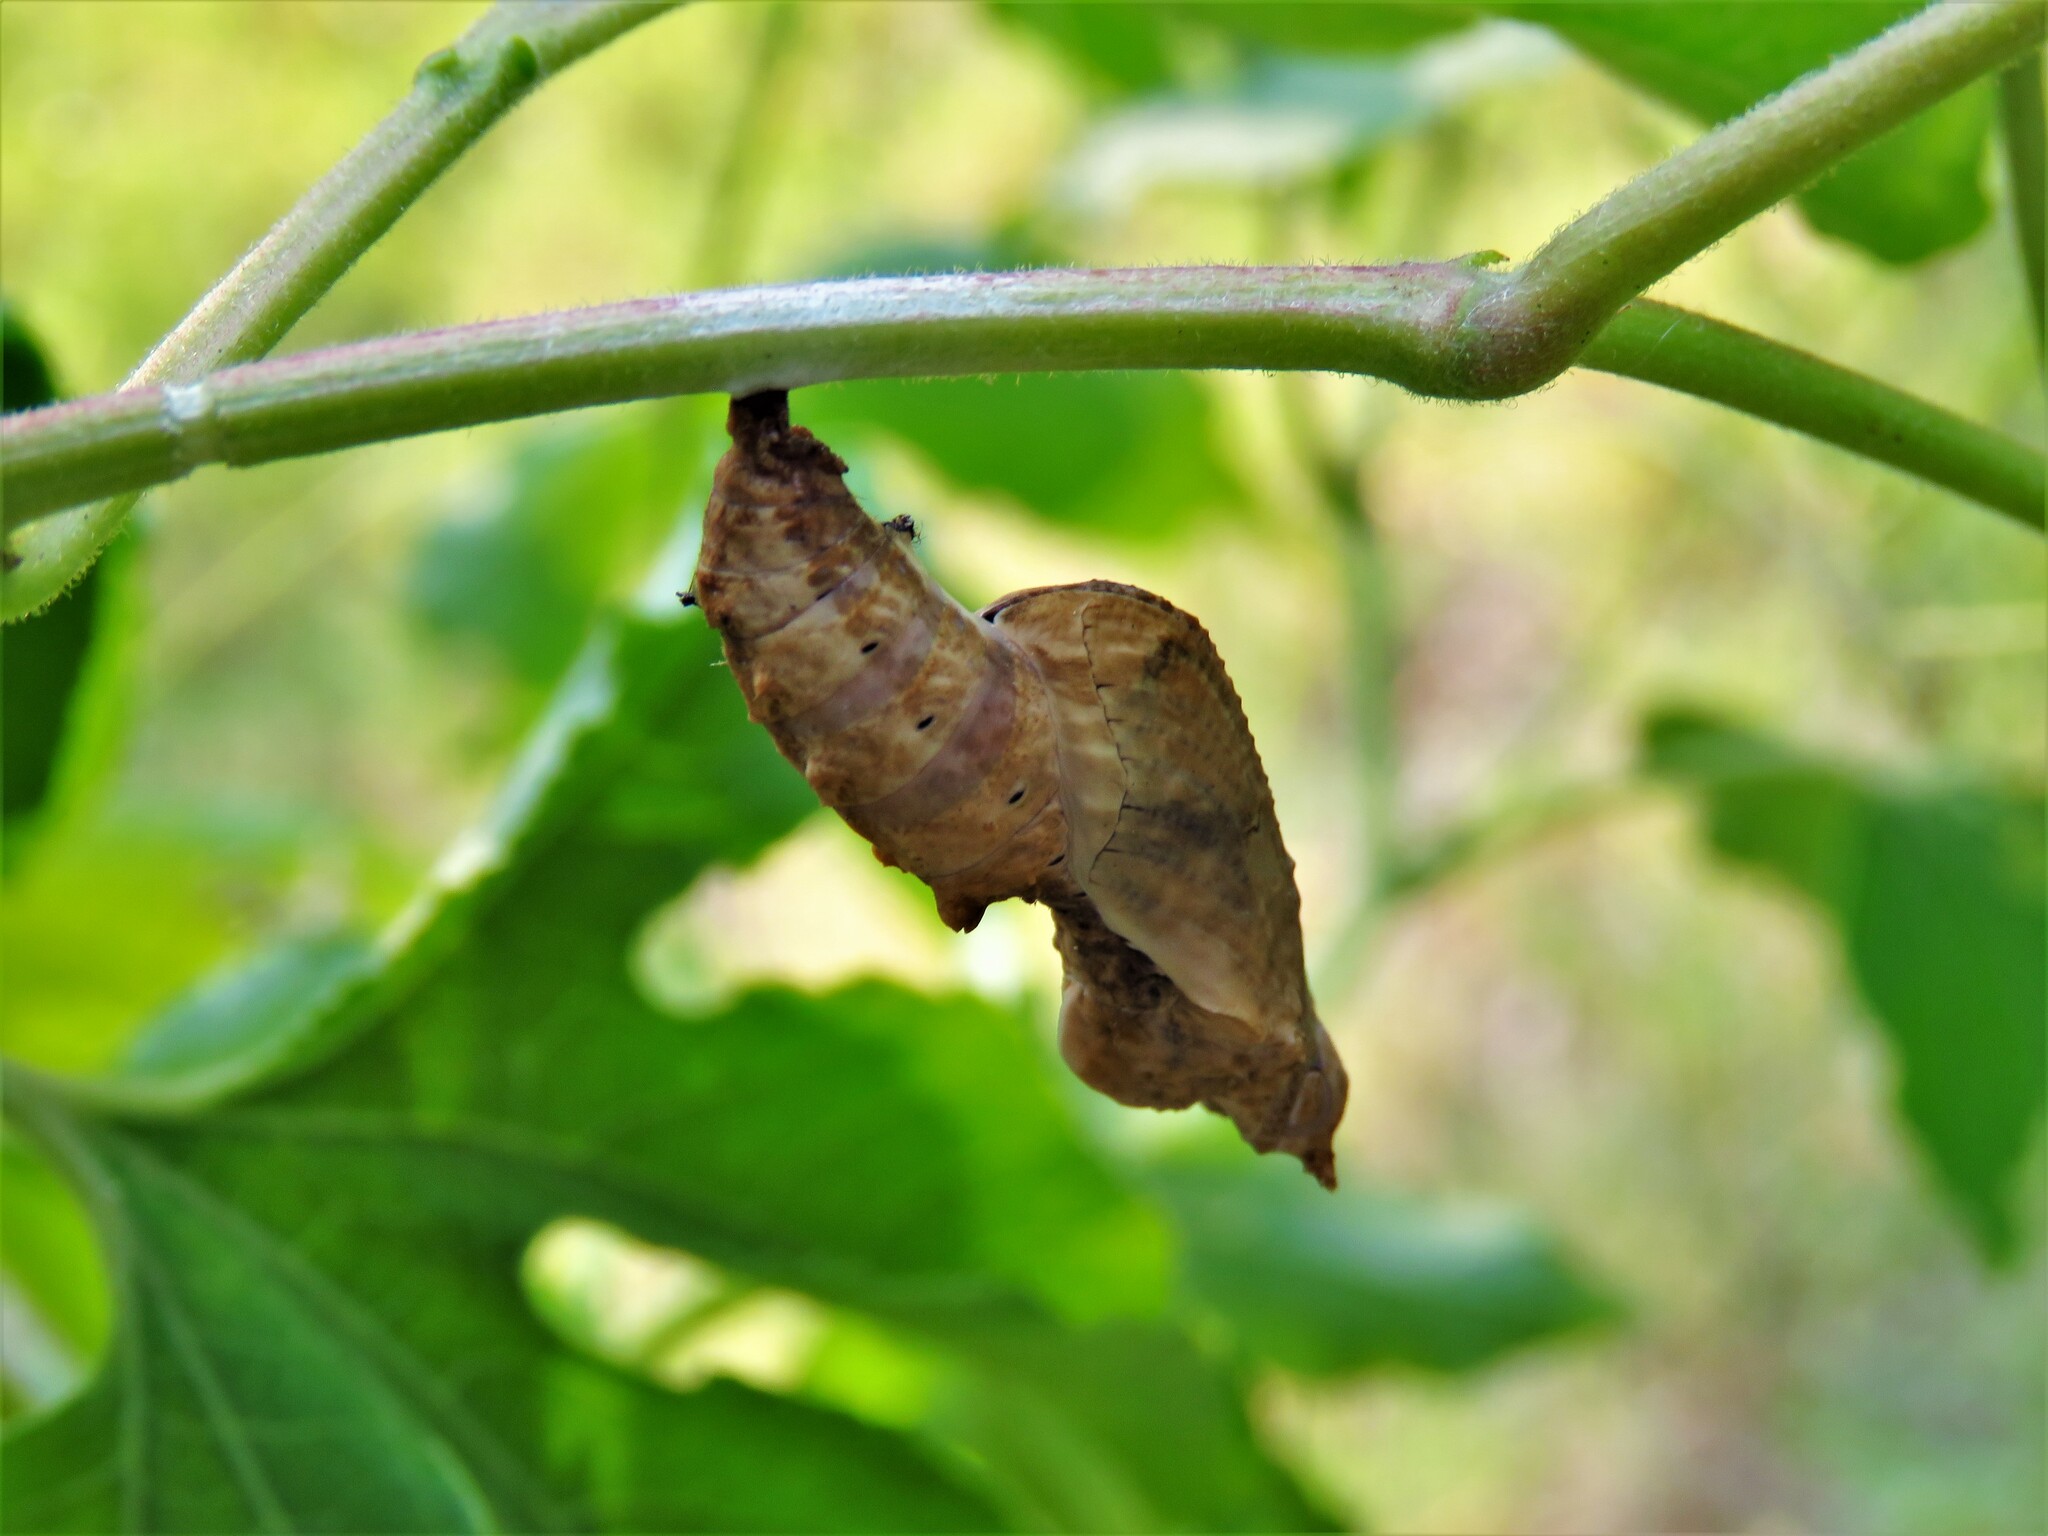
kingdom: Animalia
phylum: Arthropoda
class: Insecta
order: Lepidoptera
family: Nymphalidae
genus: Dione
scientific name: Dione vanillae
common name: Gulf fritillary
